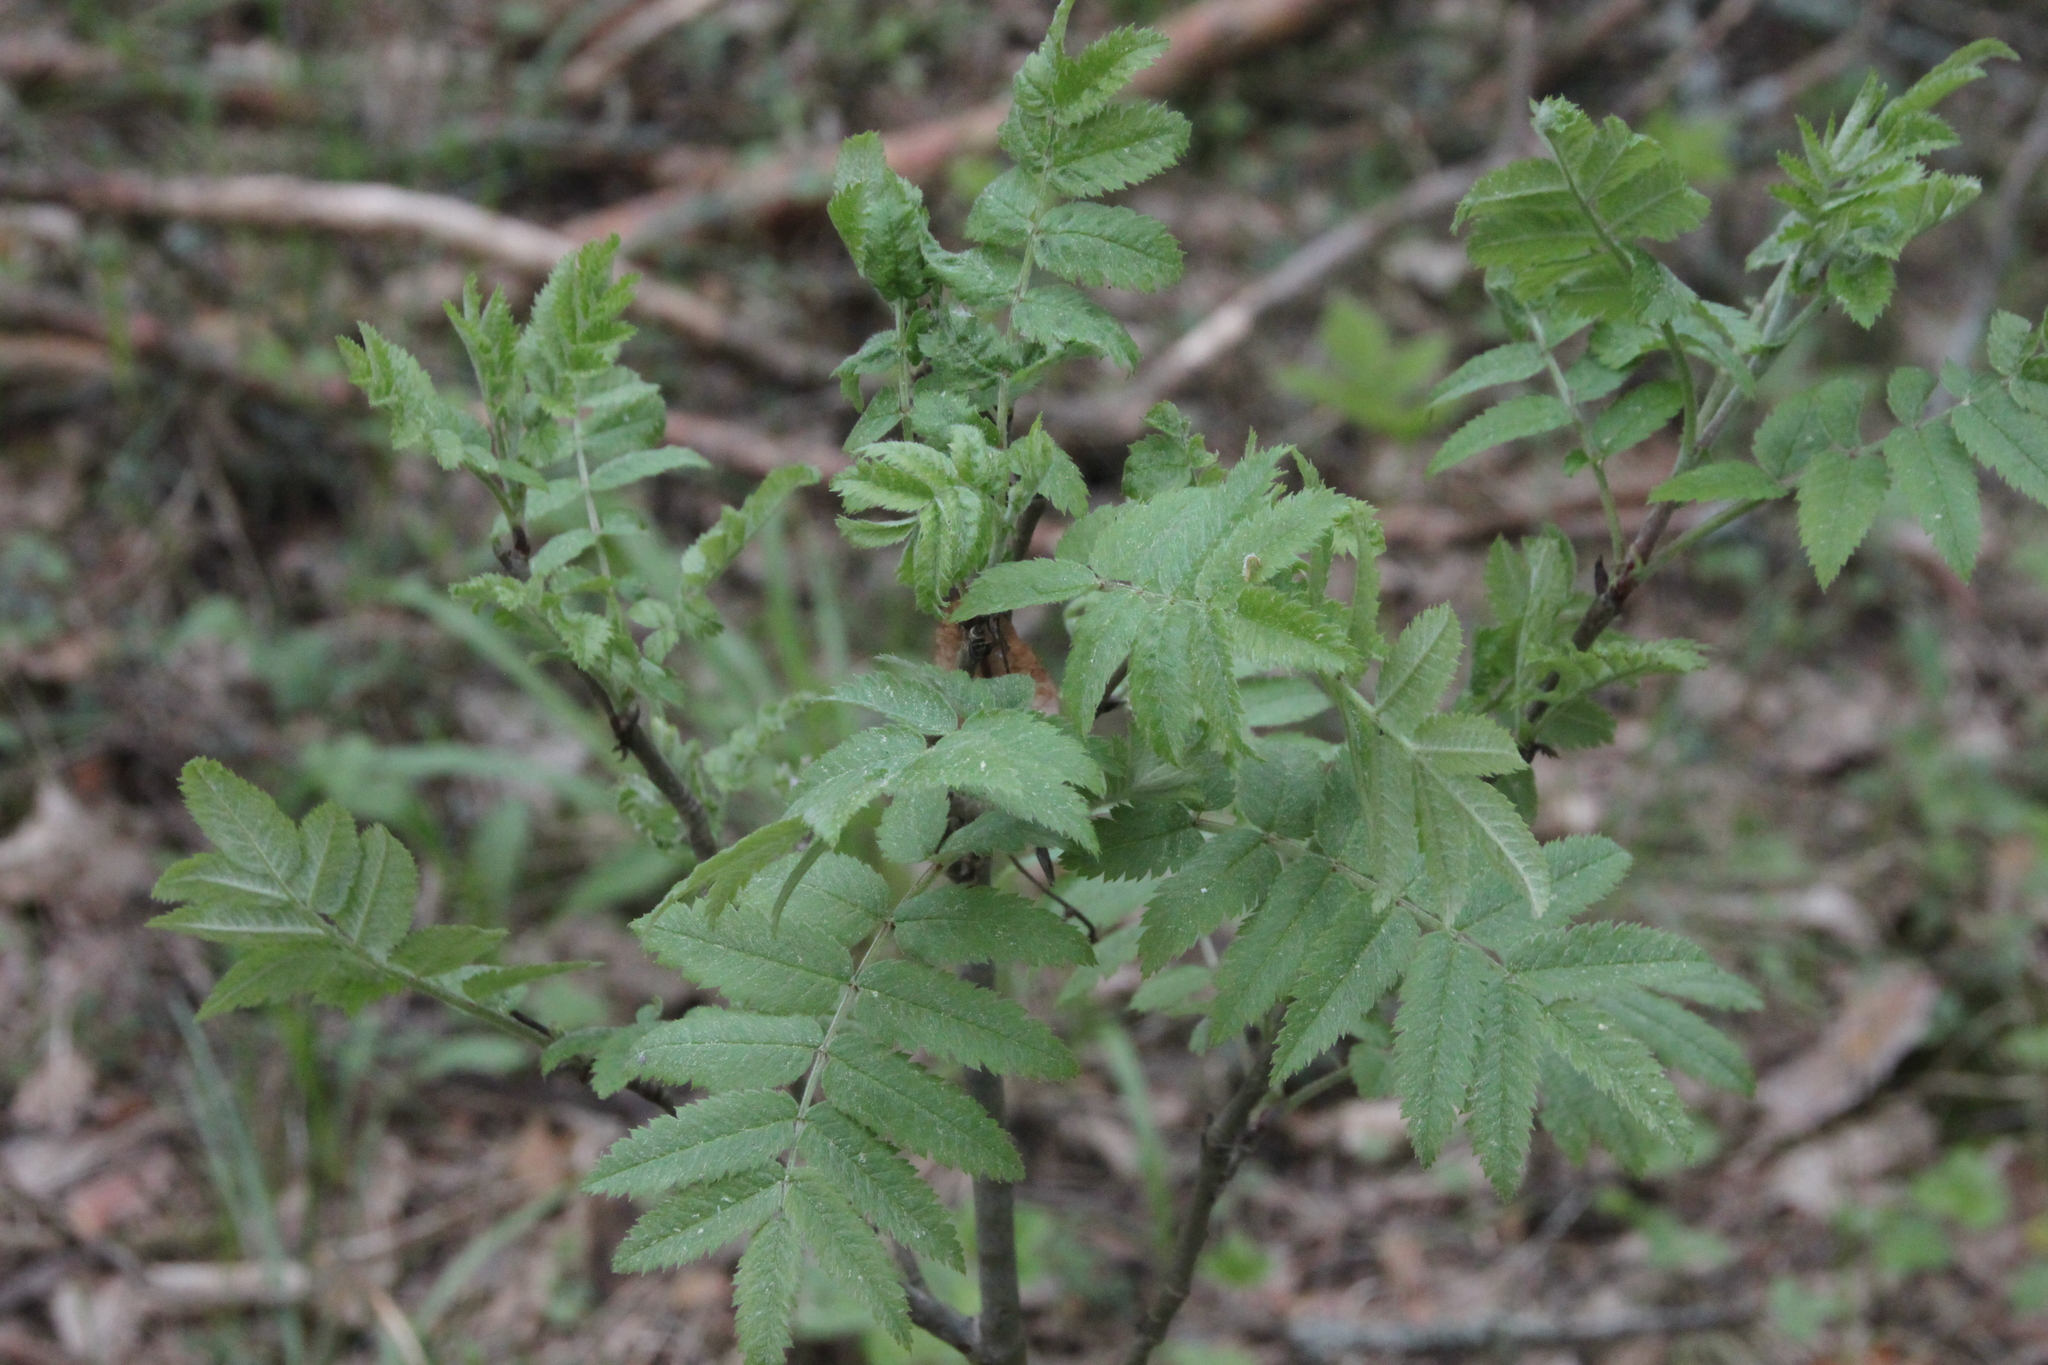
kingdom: Plantae
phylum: Tracheophyta
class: Magnoliopsida
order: Rosales
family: Rosaceae
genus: Sorbus
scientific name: Sorbus aucuparia
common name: Rowan
